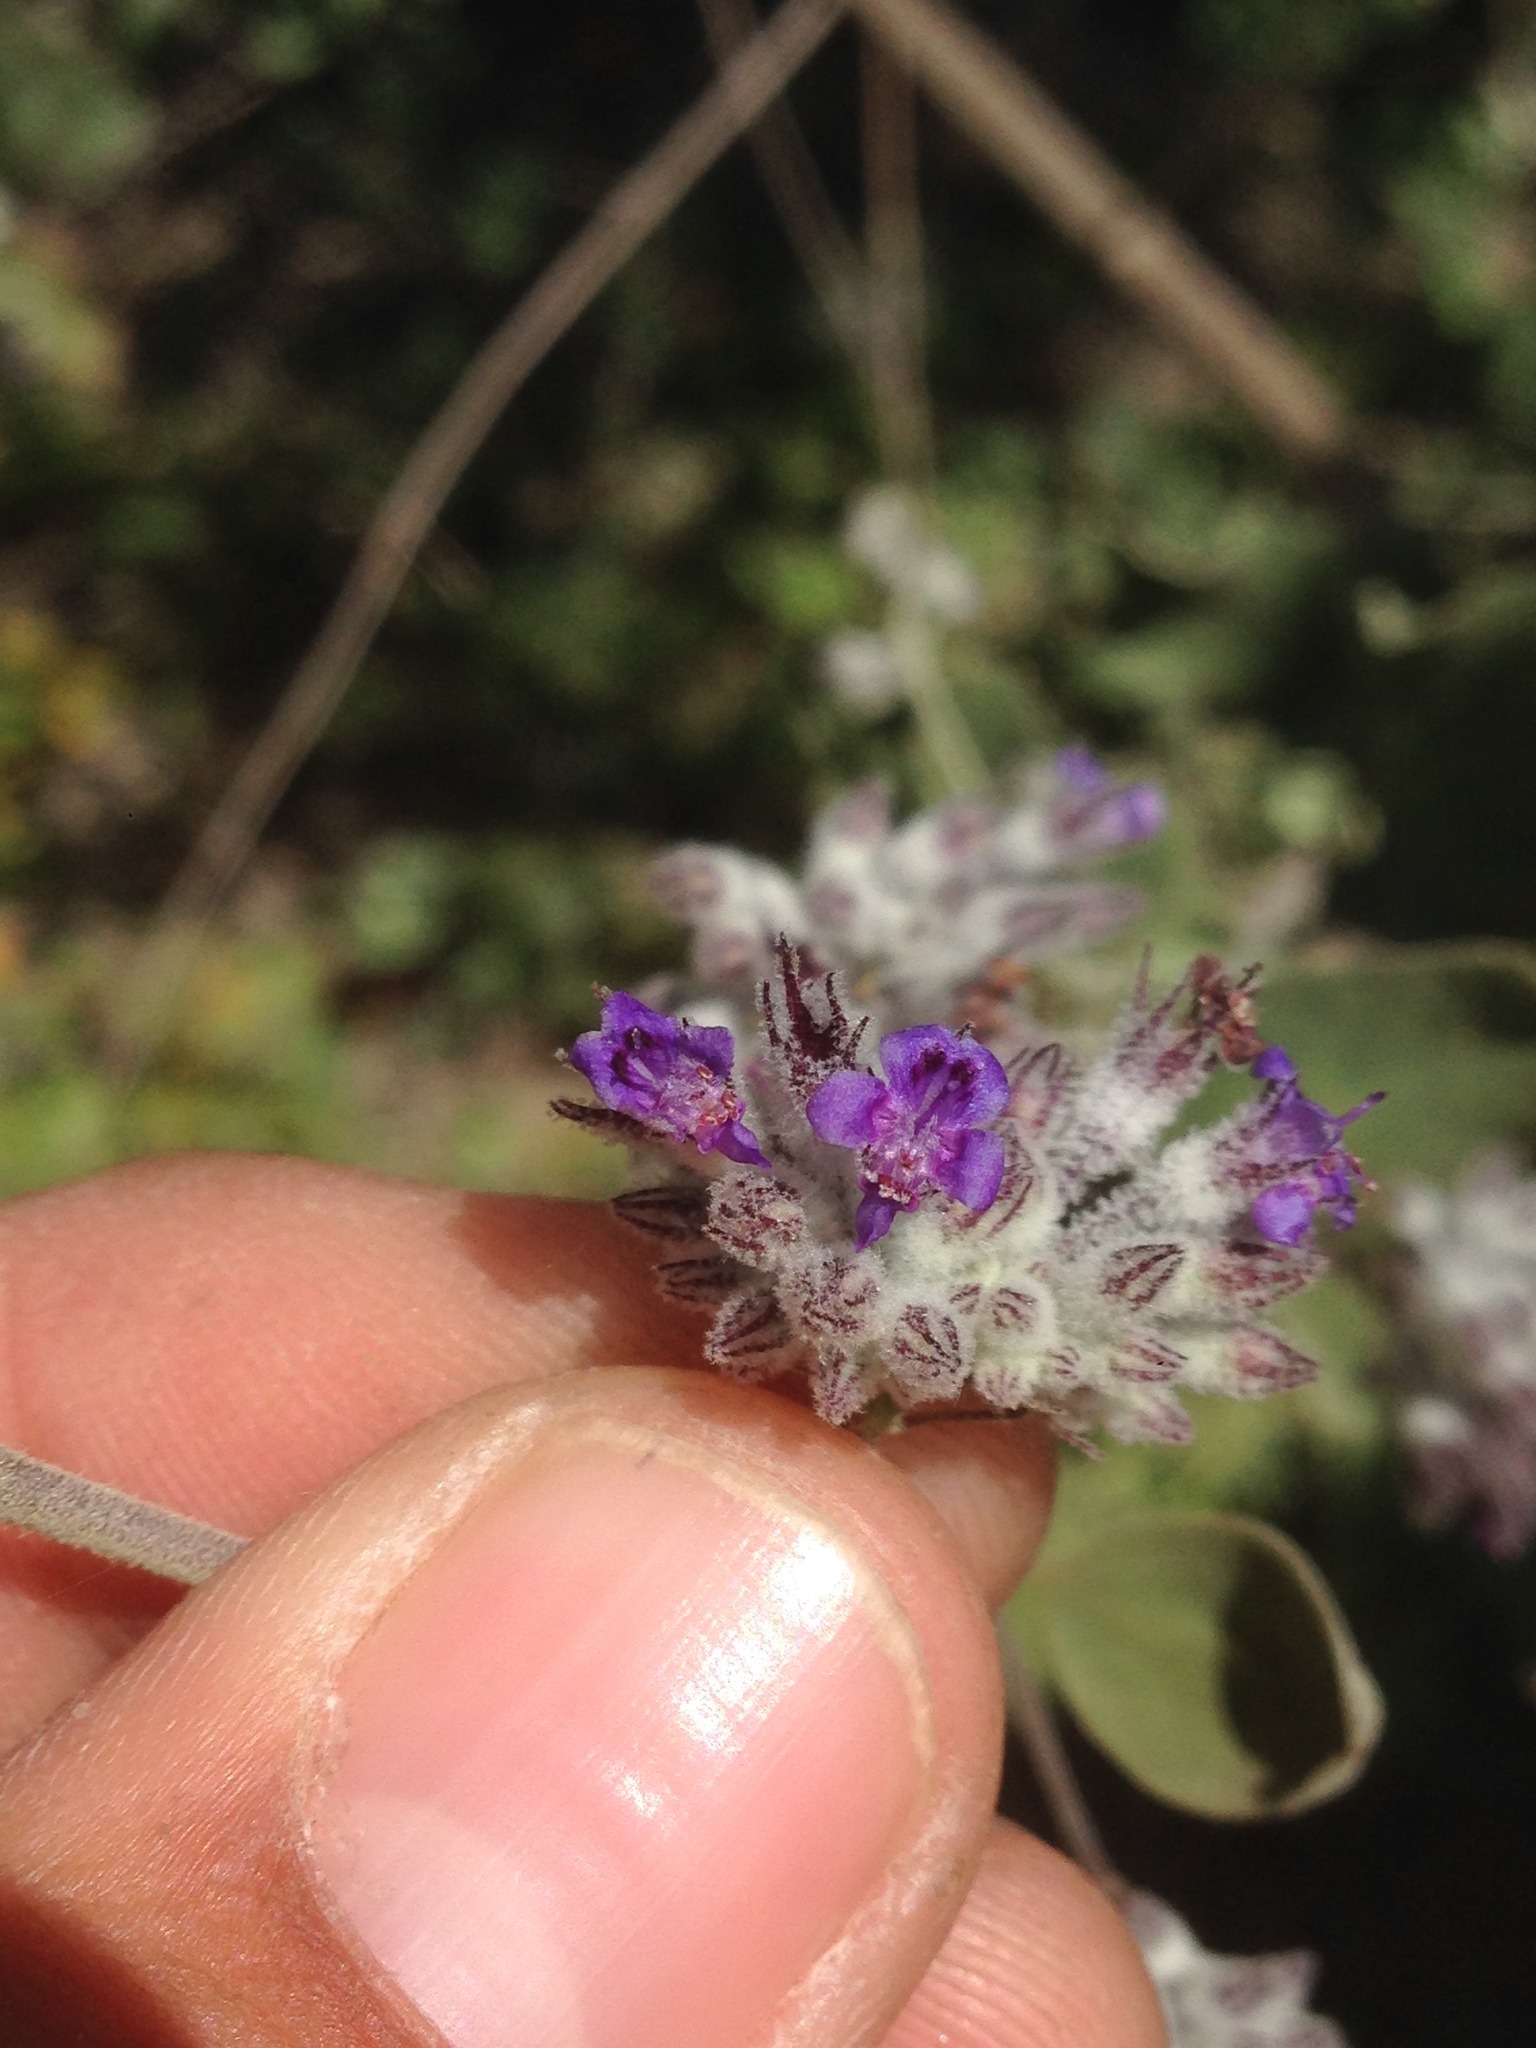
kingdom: Plantae
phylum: Tracheophyta
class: Magnoliopsida
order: Lamiales
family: Lamiaceae
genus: Condea
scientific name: Condea emoryi
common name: Chia
